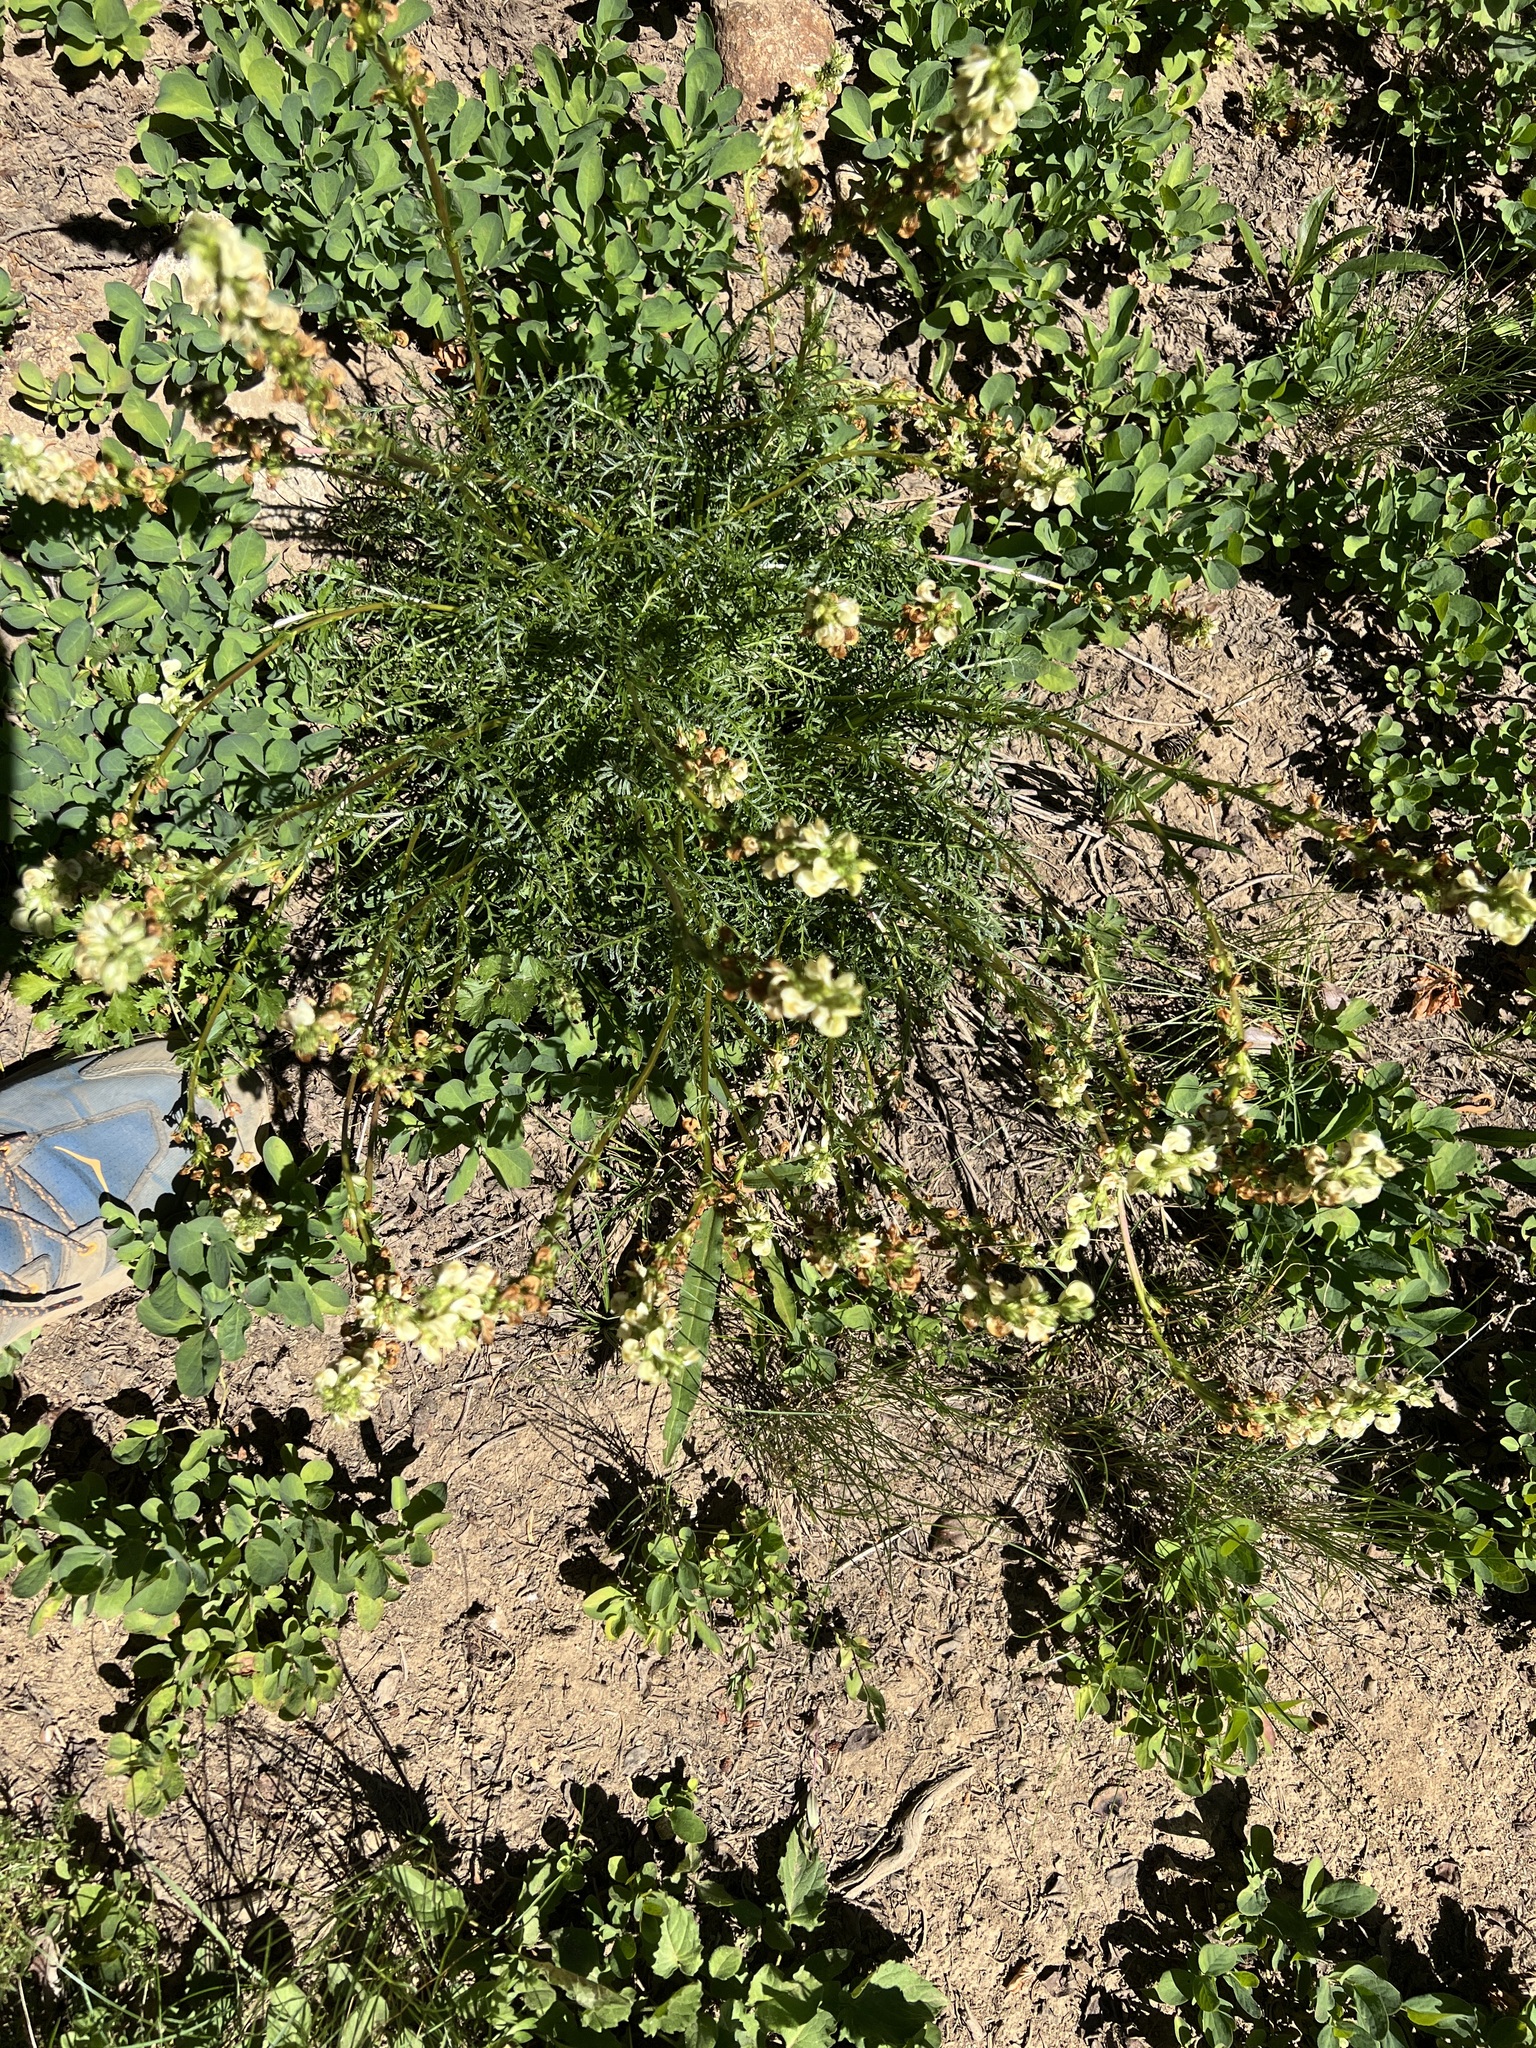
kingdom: Plantae
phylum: Tracheophyta
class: Magnoliopsida
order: Lamiales
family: Orobanchaceae
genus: Pedicularis
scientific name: Pedicularis contorta
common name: Coiled lousewort
